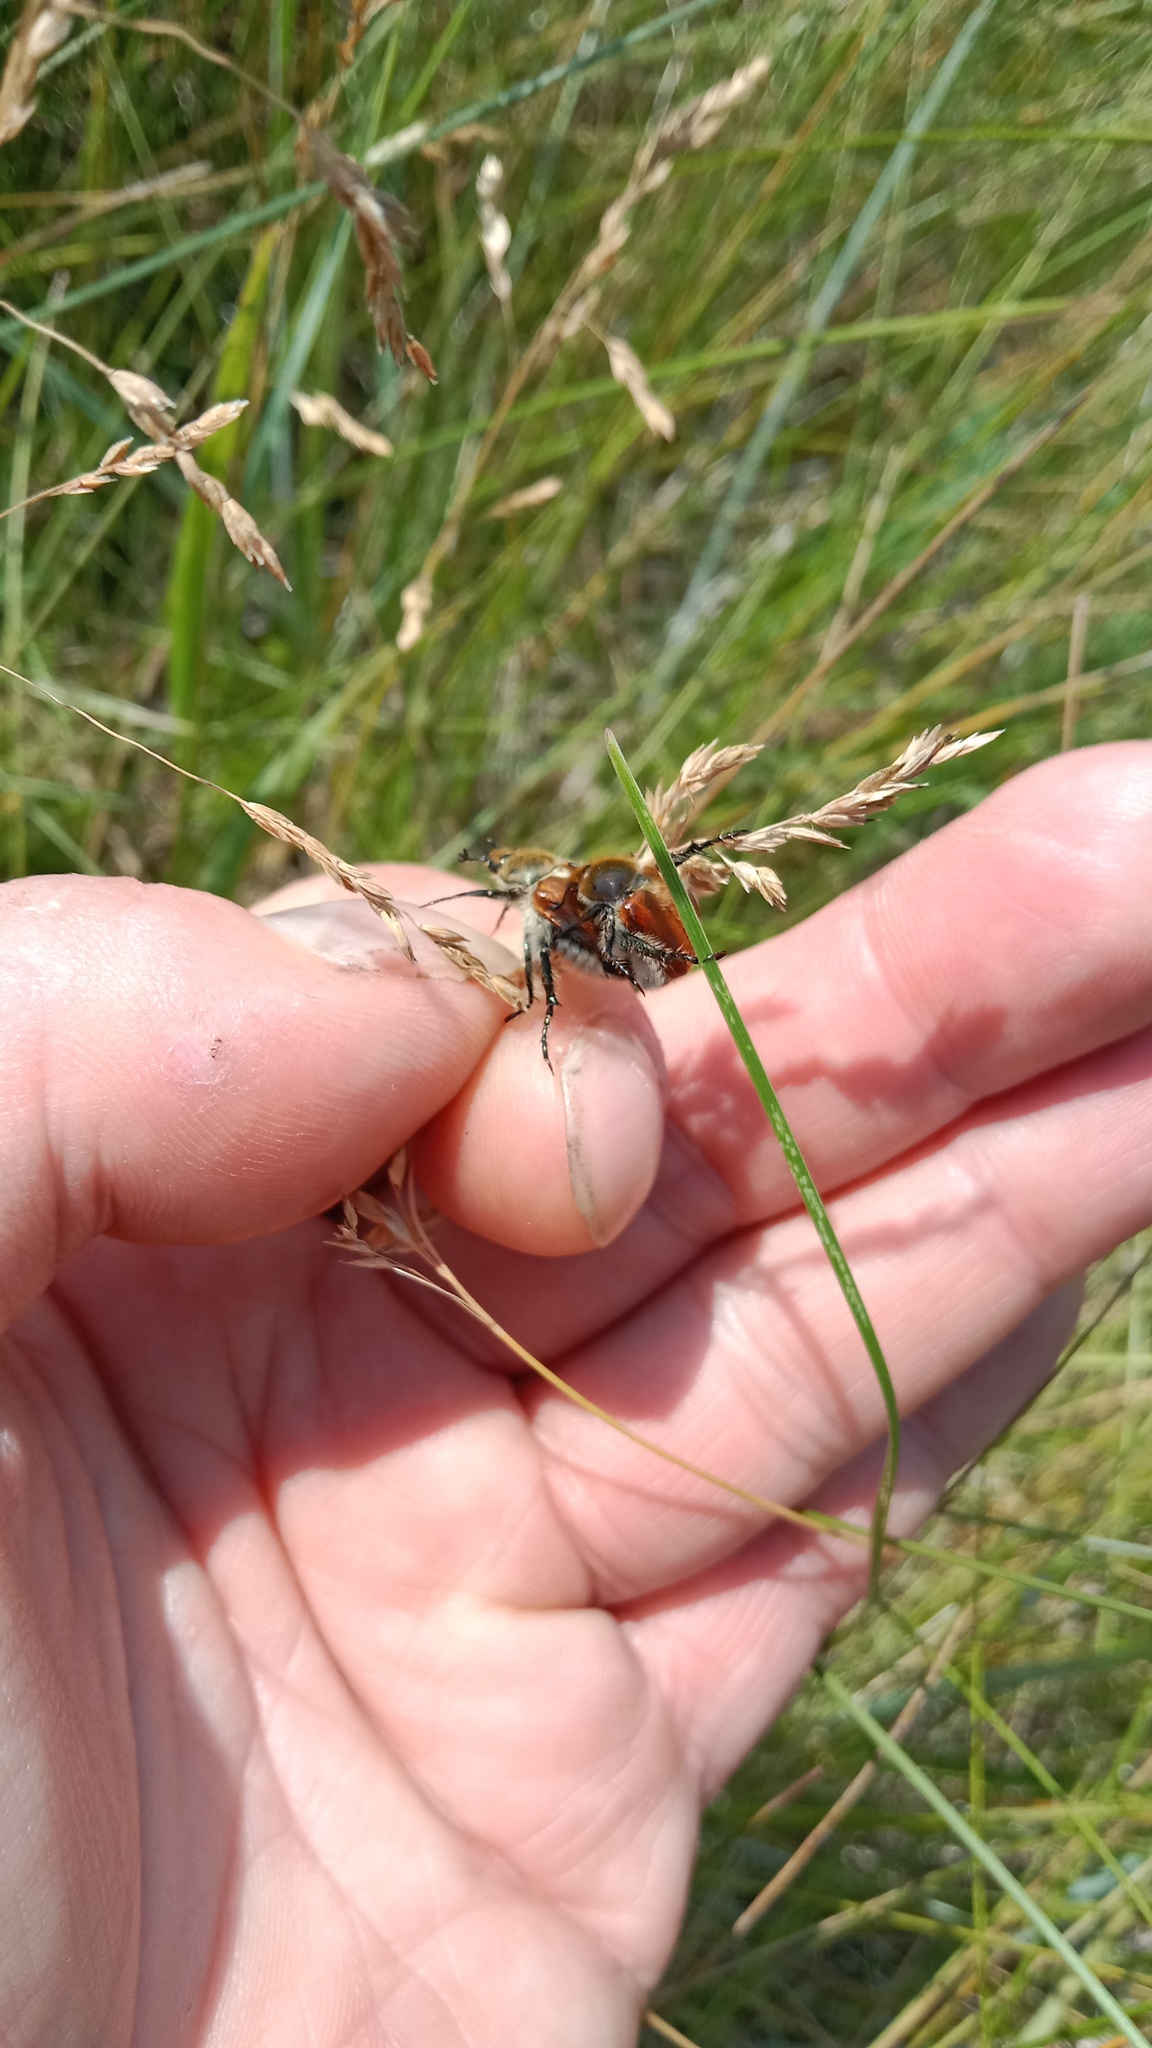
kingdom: Animalia
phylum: Arthropoda
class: Insecta
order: Coleoptera
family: Scarabaeidae
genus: Chaetopteroplia
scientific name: Chaetopteroplia segetum
